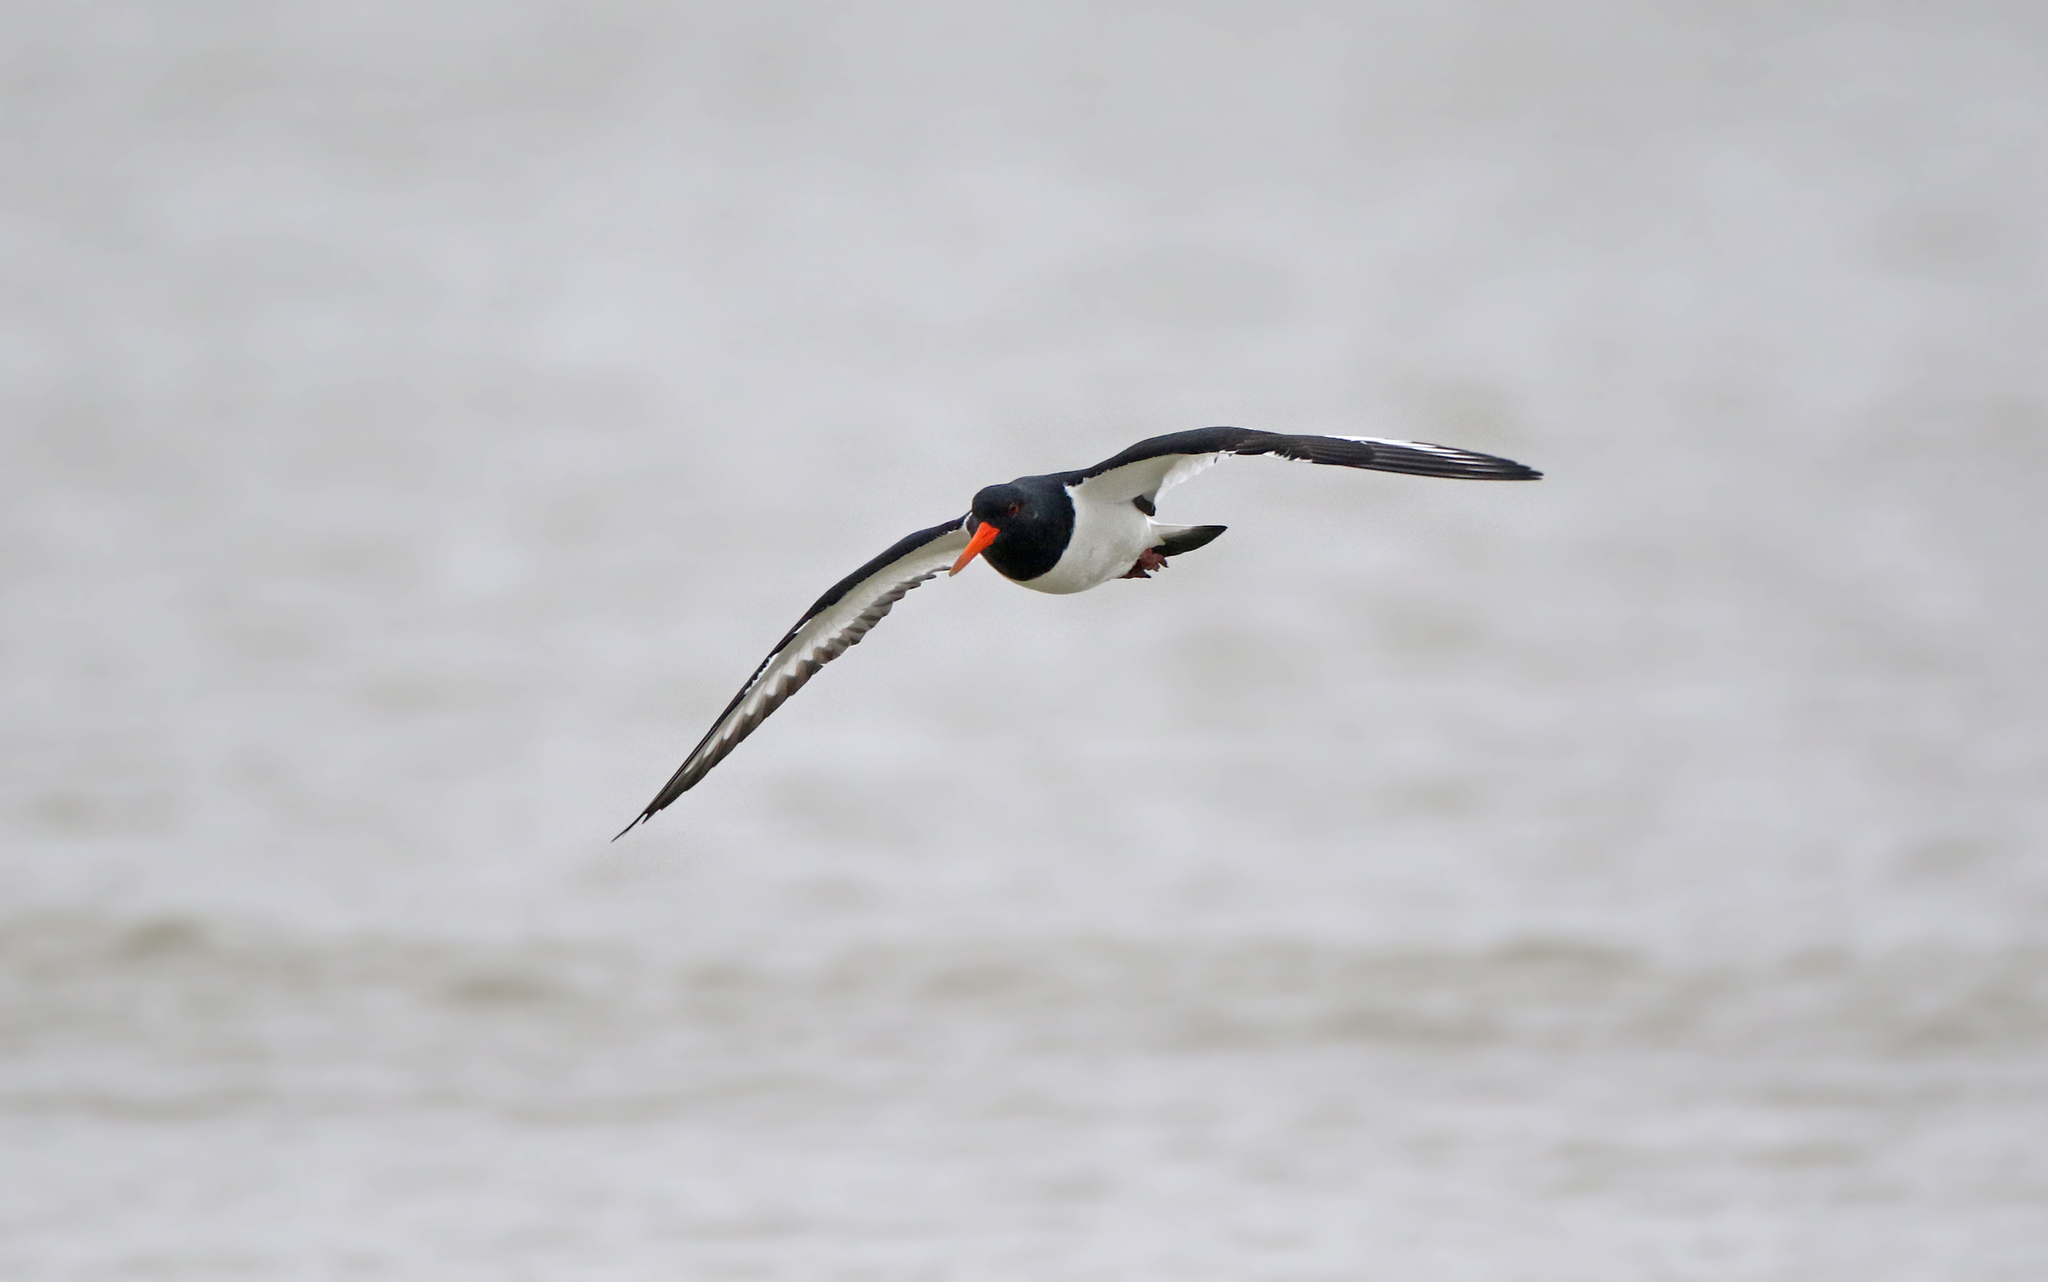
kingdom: Animalia
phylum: Chordata
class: Aves
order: Charadriiformes
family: Haematopodidae
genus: Haematopus
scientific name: Haematopus ostralegus
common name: Eurasian oystercatcher
